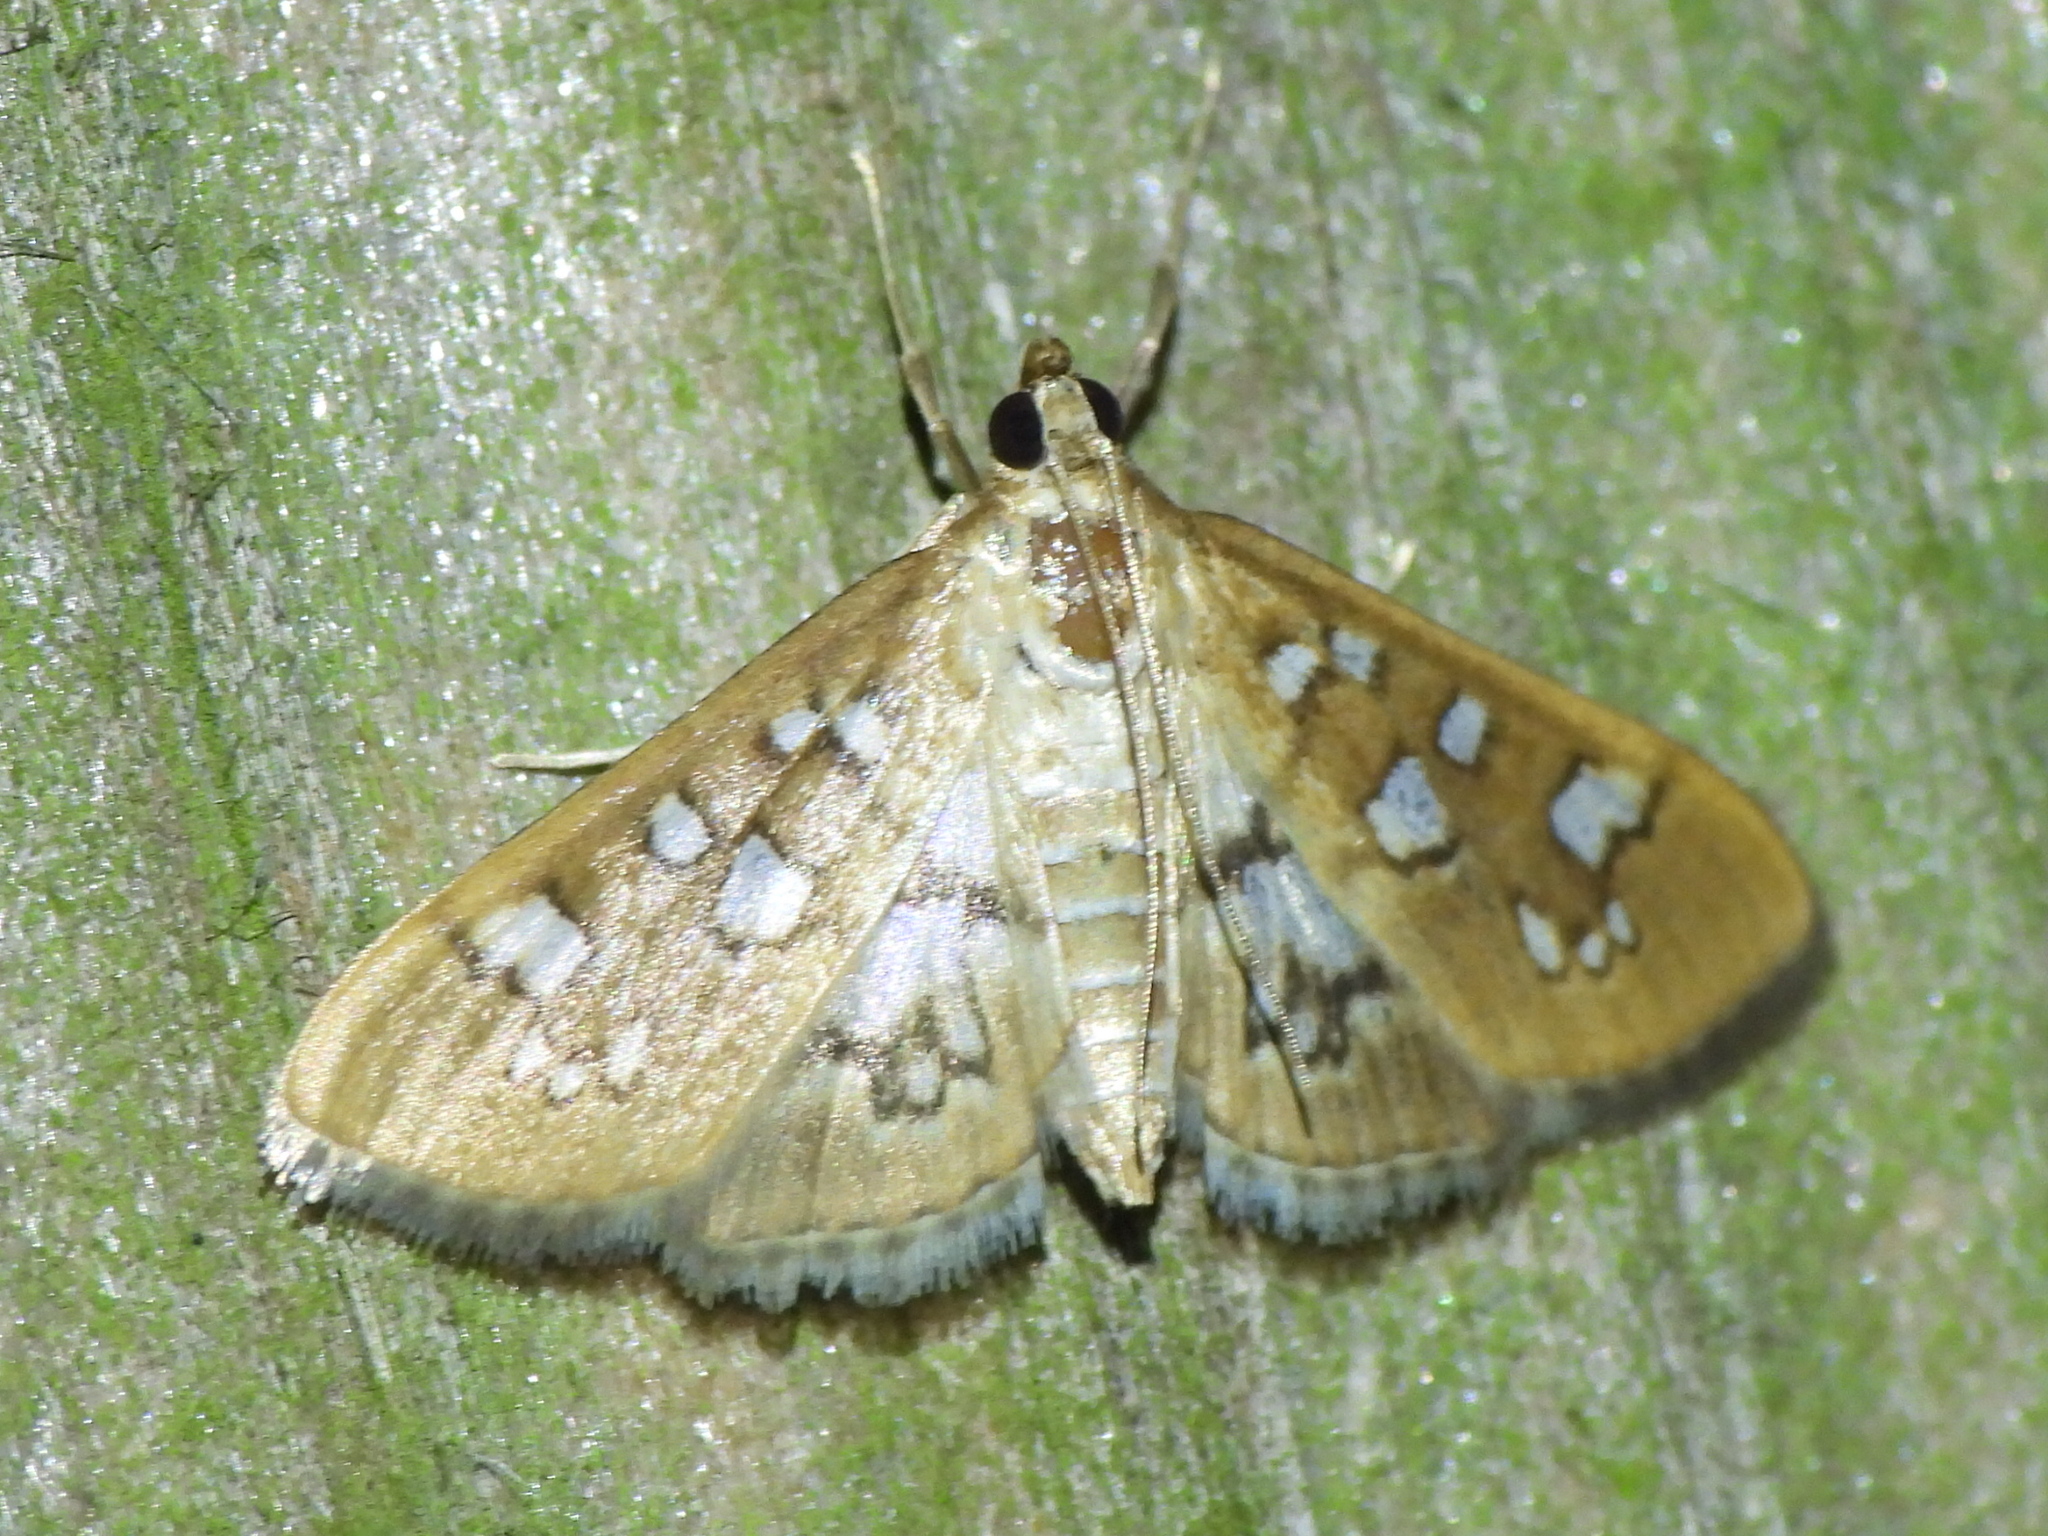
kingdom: Animalia
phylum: Arthropoda
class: Insecta
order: Lepidoptera
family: Crambidae
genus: Samea
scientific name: Samea baccatalis
